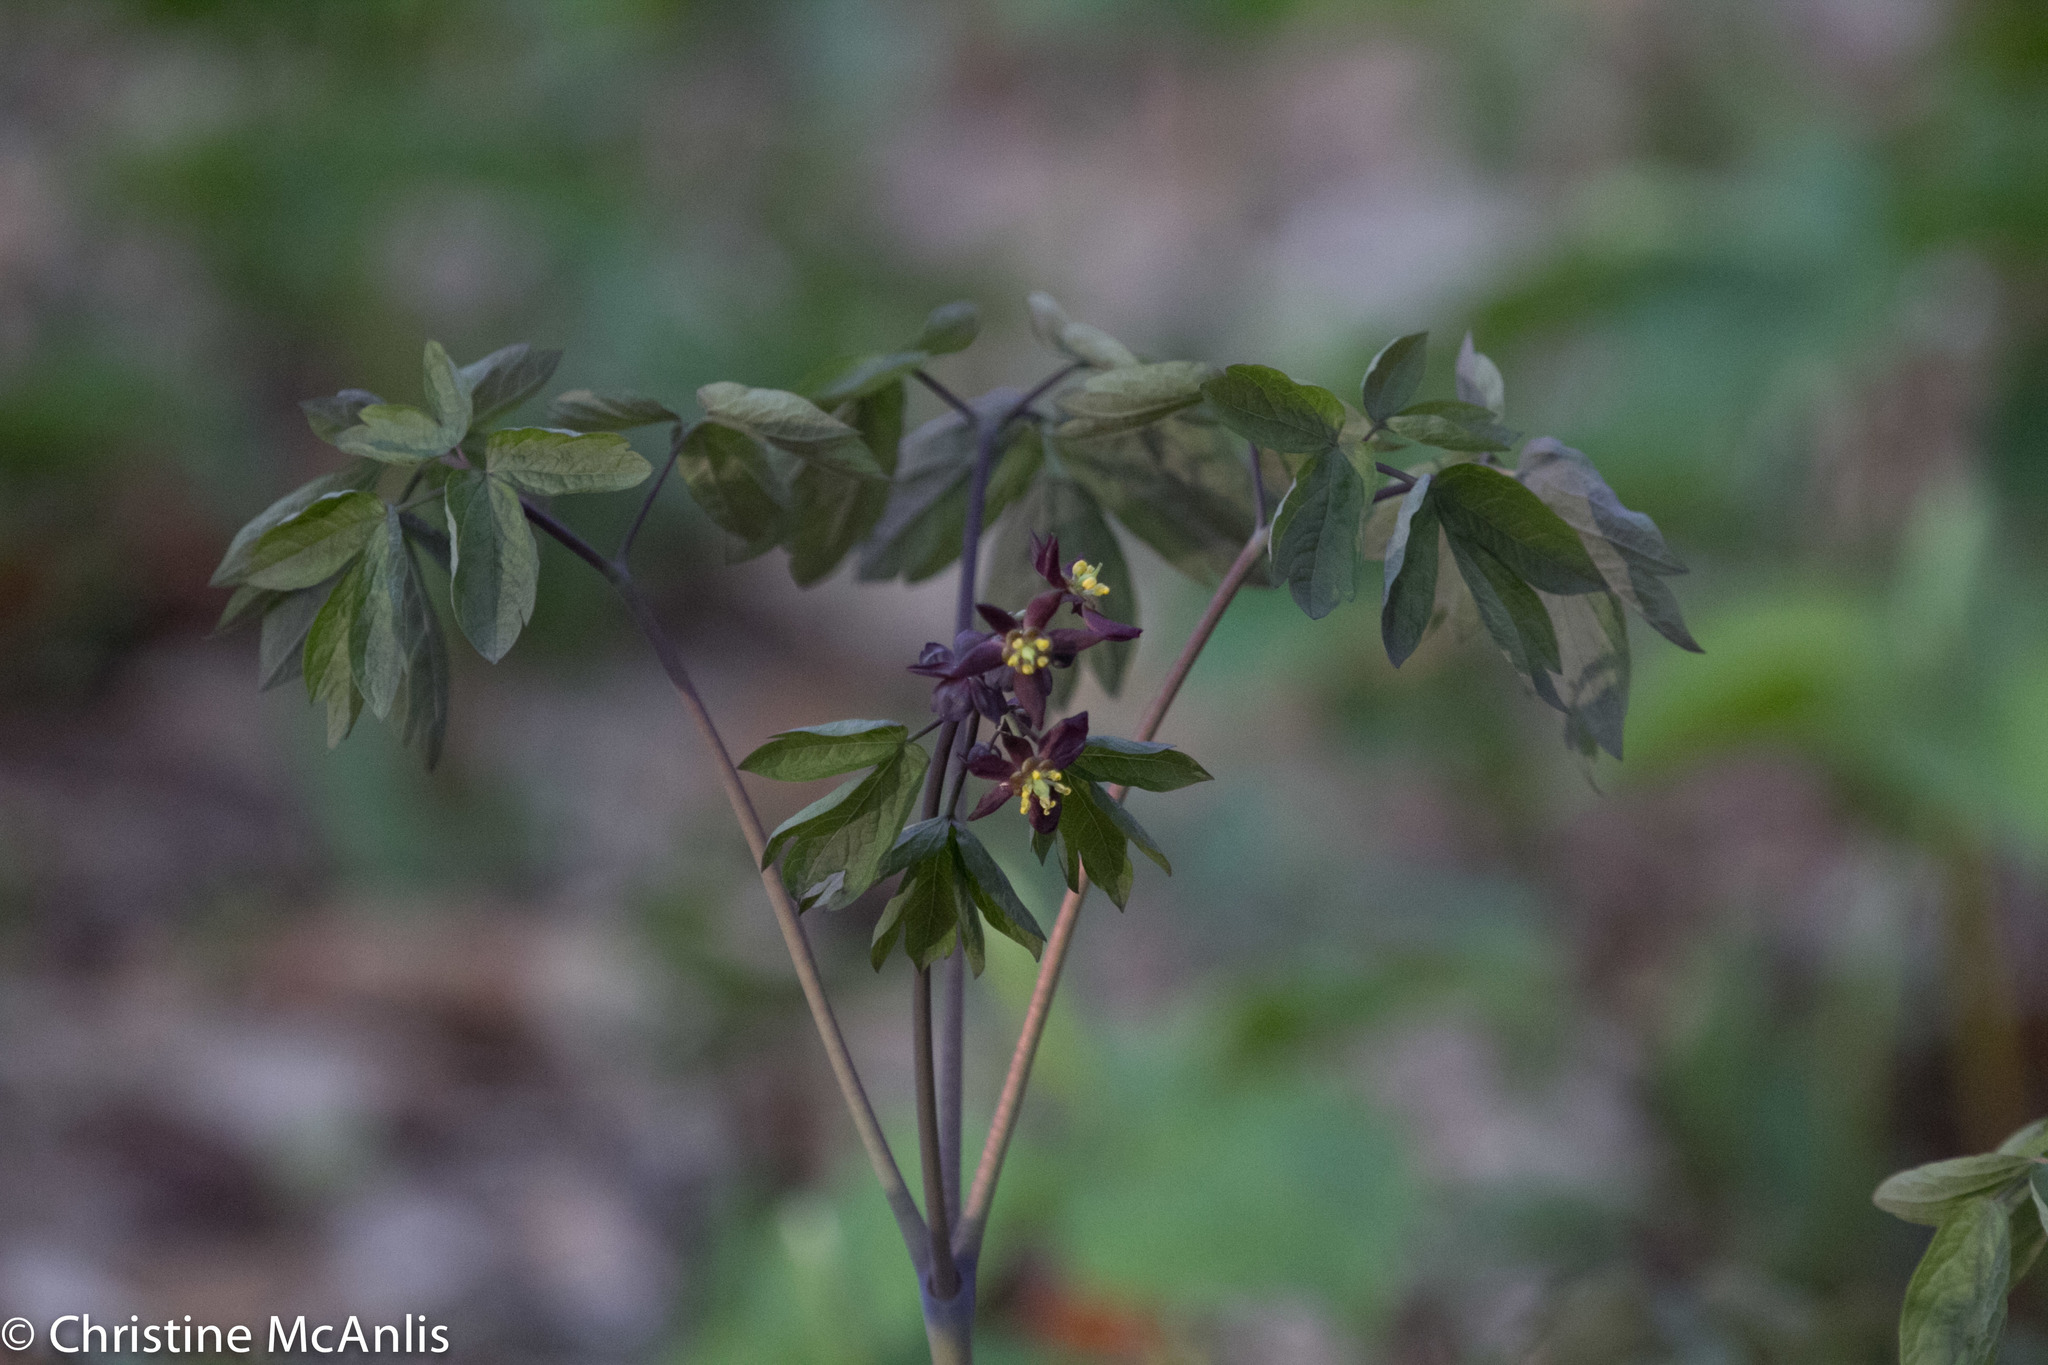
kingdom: Plantae
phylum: Tracheophyta
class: Magnoliopsida
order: Ranunculales
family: Berberidaceae
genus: Caulophyllum
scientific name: Caulophyllum thalictroides
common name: Blue cohosh
